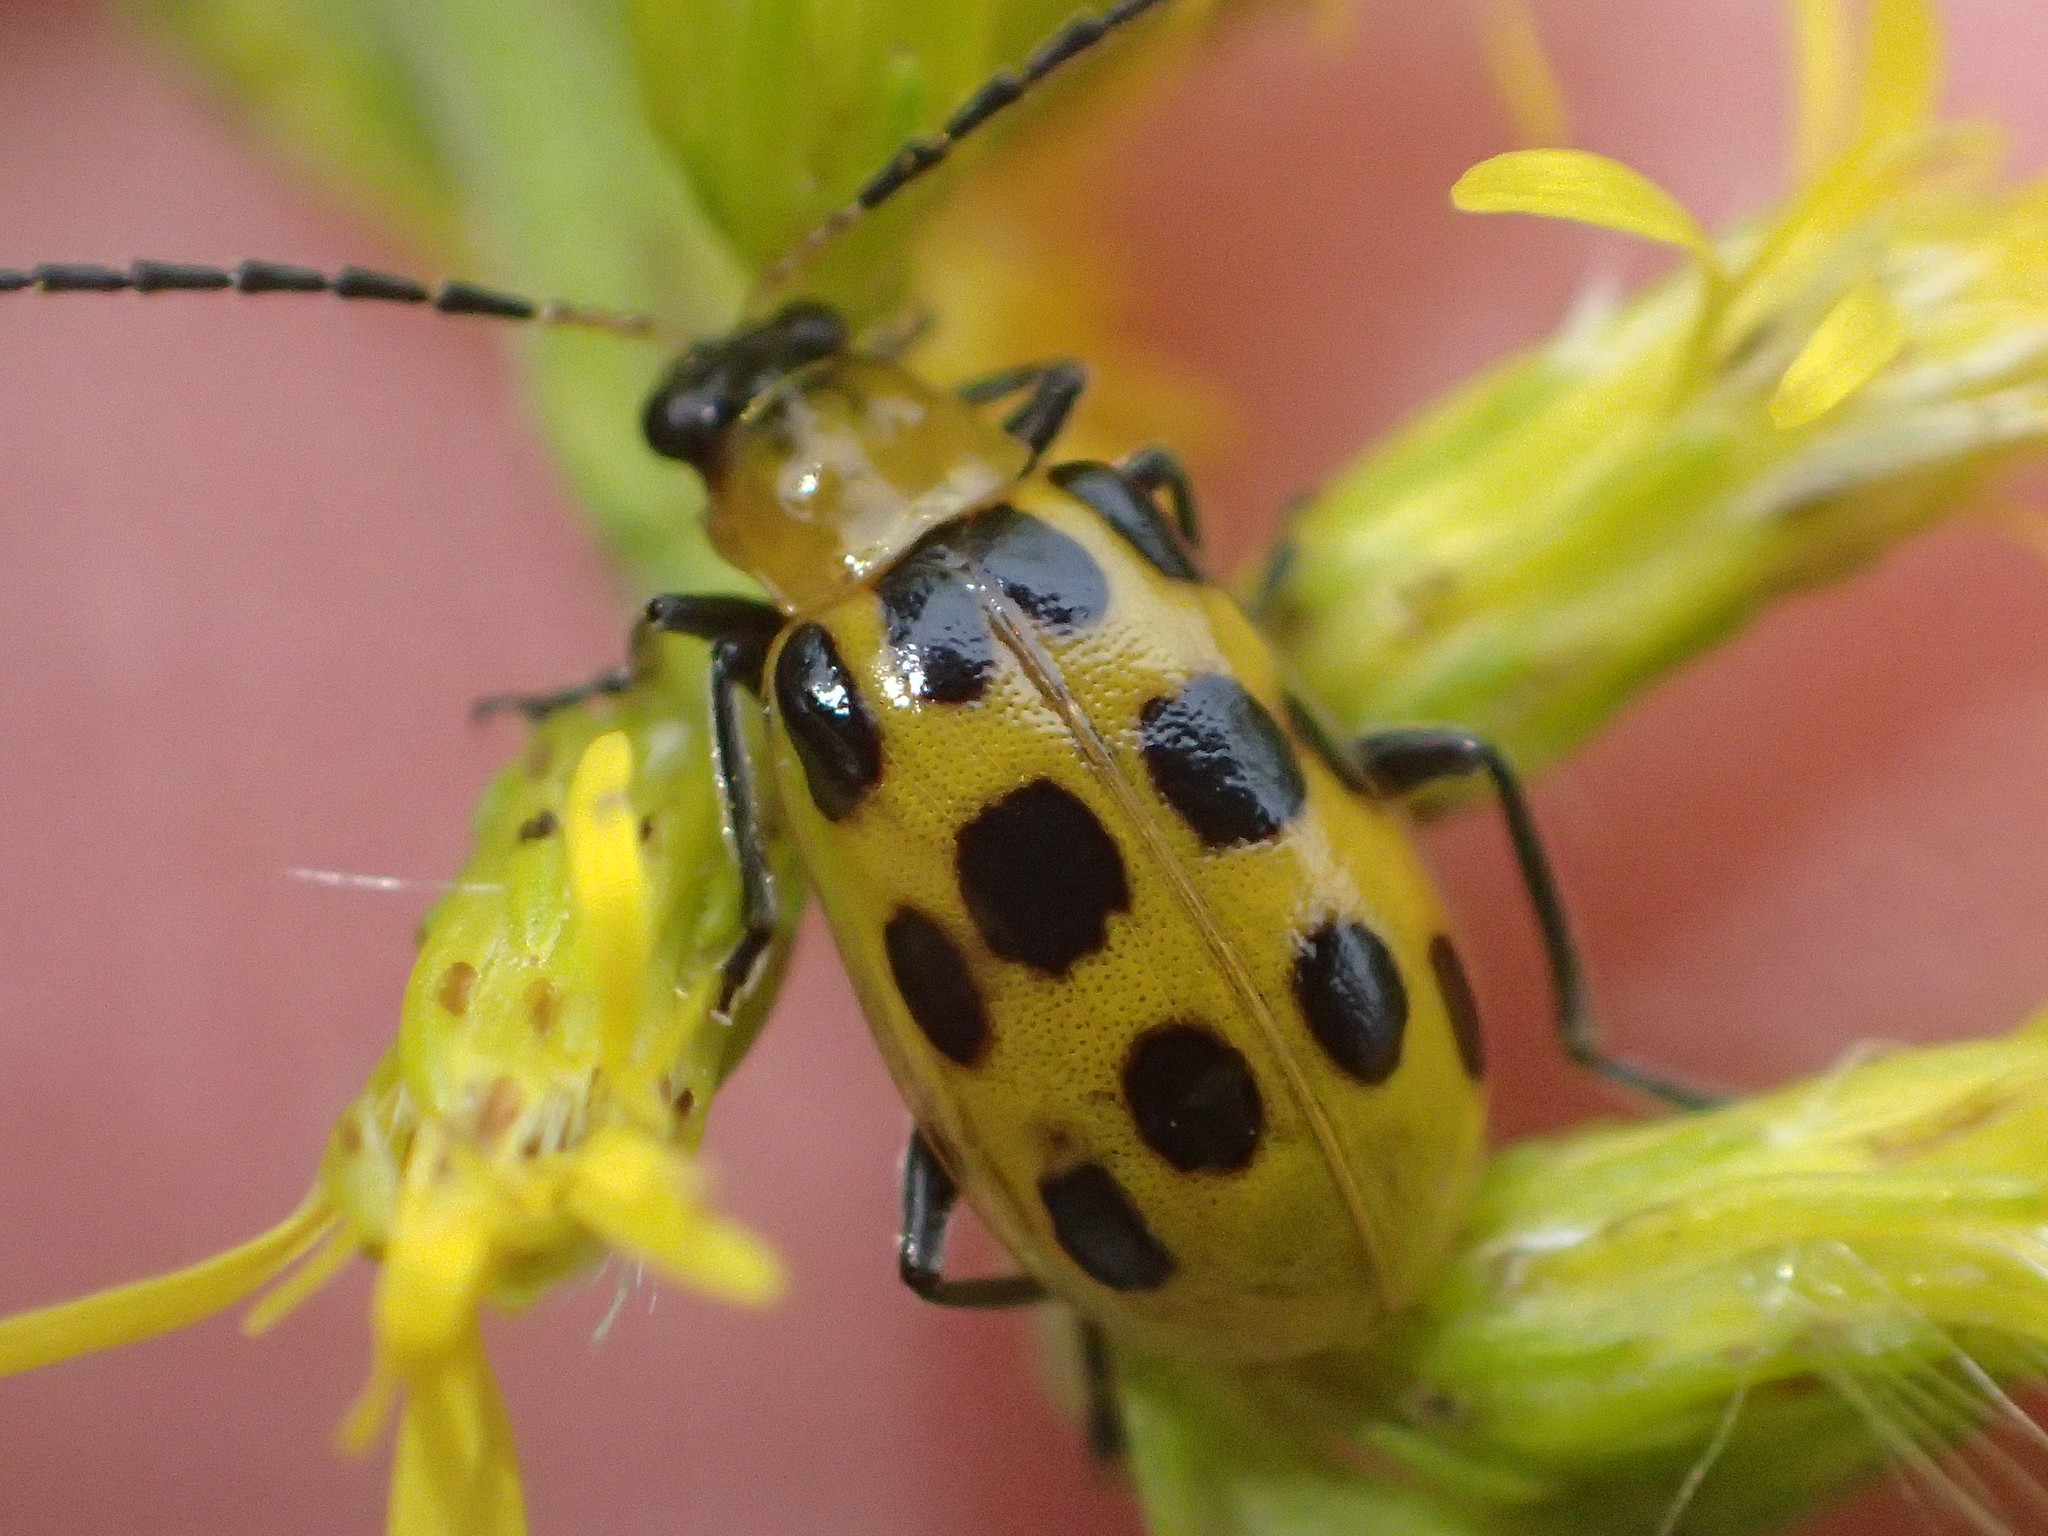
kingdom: Animalia
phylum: Arthropoda
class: Insecta
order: Coleoptera
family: Chrysomelidae
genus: Diabrotica
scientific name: Diabrotica undecimpunctata
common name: Spotted cucumber beetle
